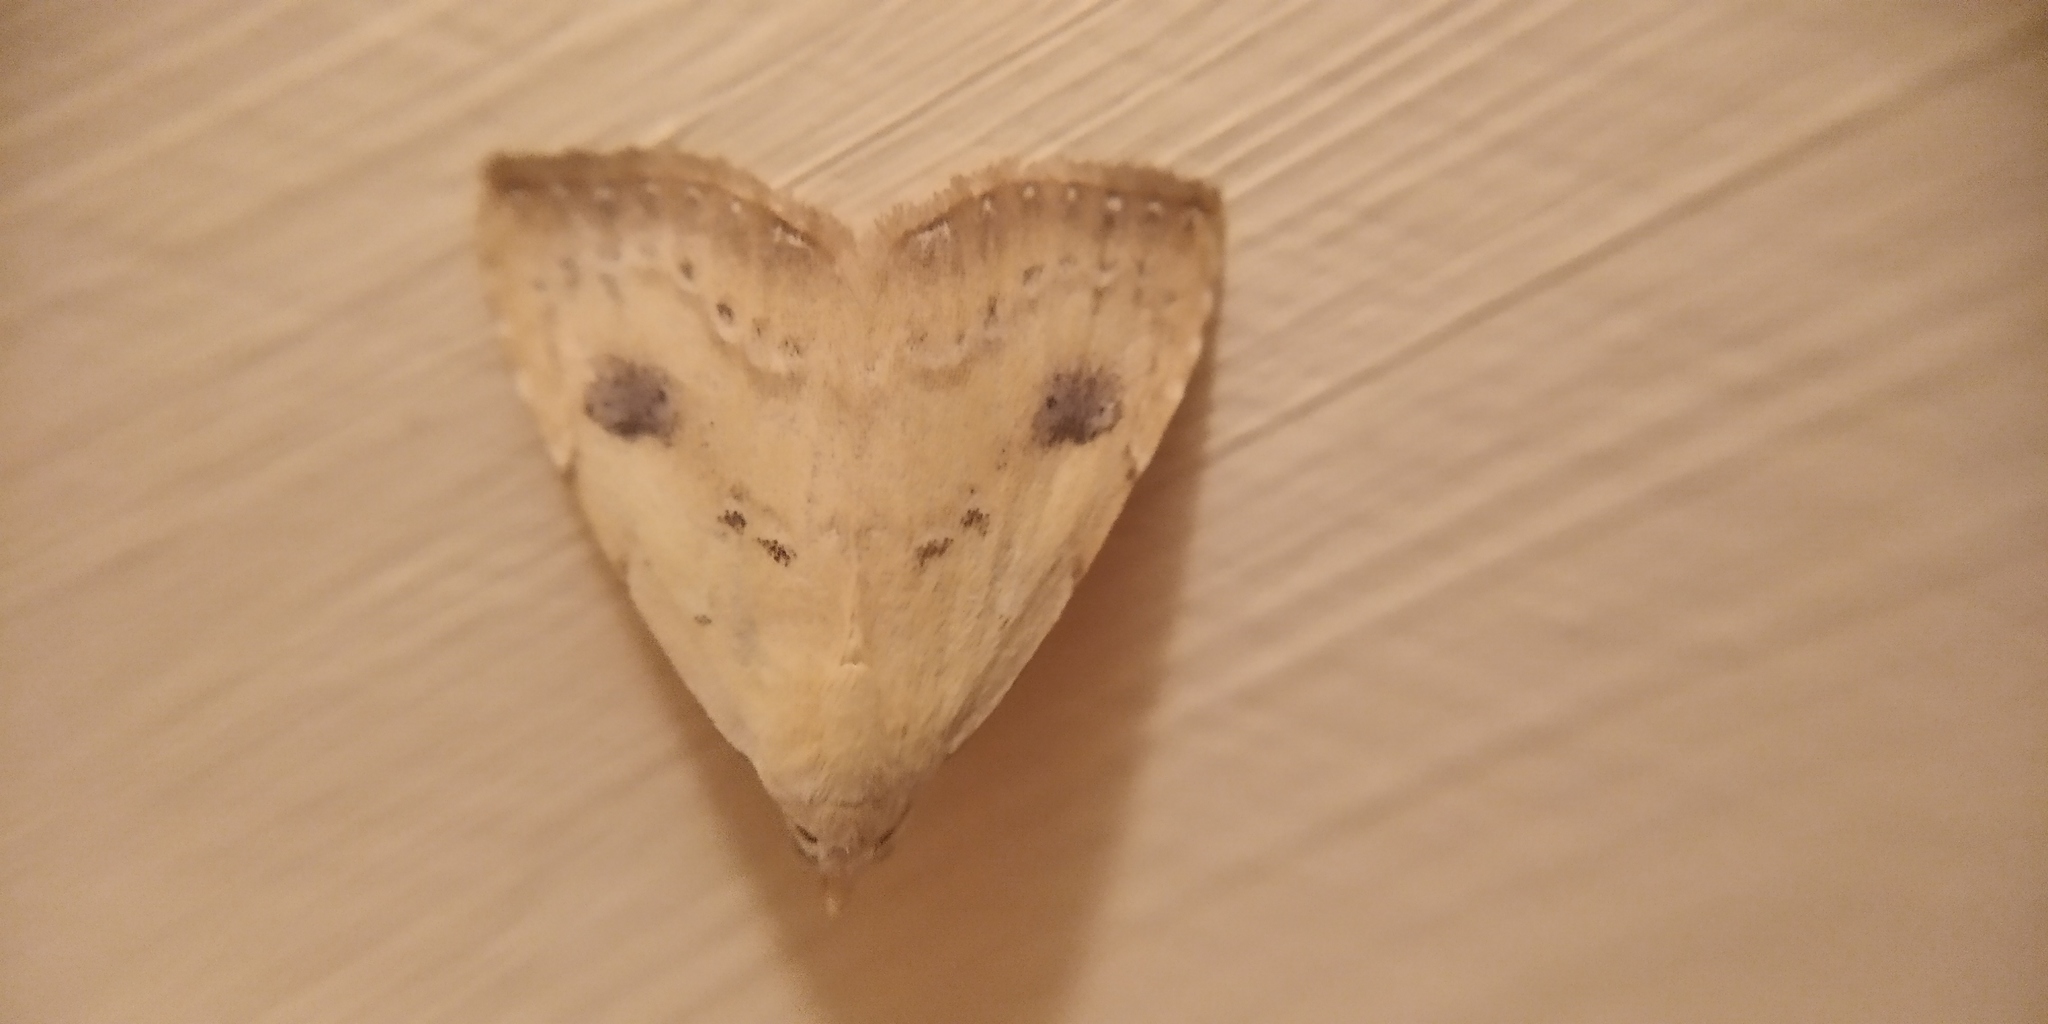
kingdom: Animalia
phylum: Arthropoda
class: Insecta
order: Lepidoptera
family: Erebidae
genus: Rivula
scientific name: Rivula sericealis
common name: Straw dot
